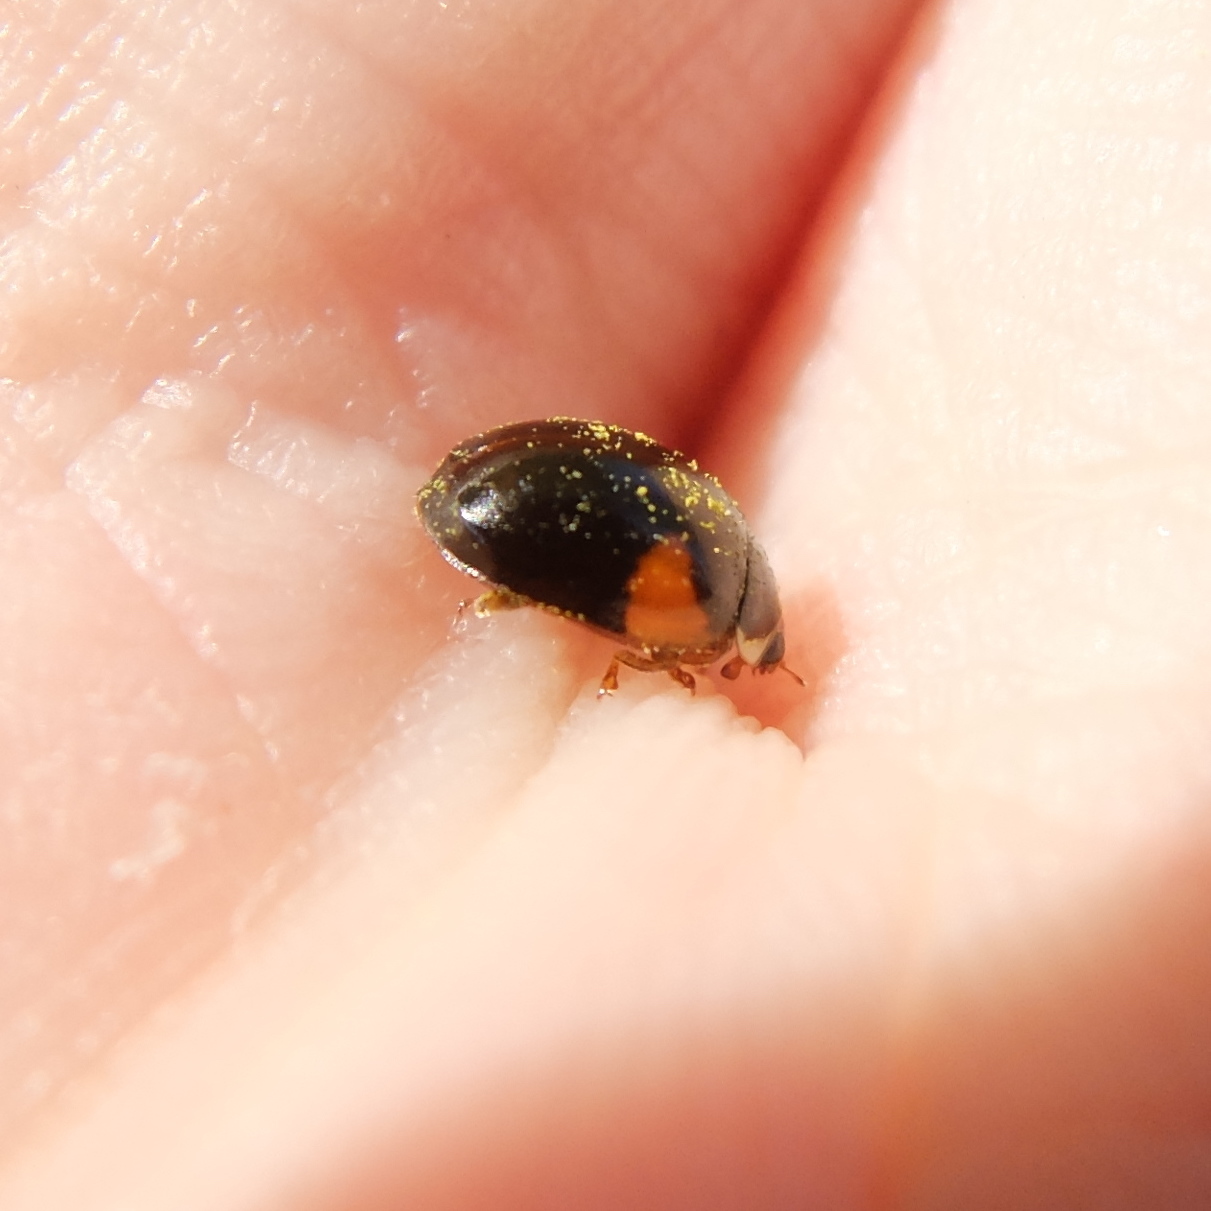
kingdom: Animalia
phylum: Arthropoda
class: Insecta
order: Coleoptera
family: Coccinellidae
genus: Adalia
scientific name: Adalia decempunctata
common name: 10-spot ladybird
